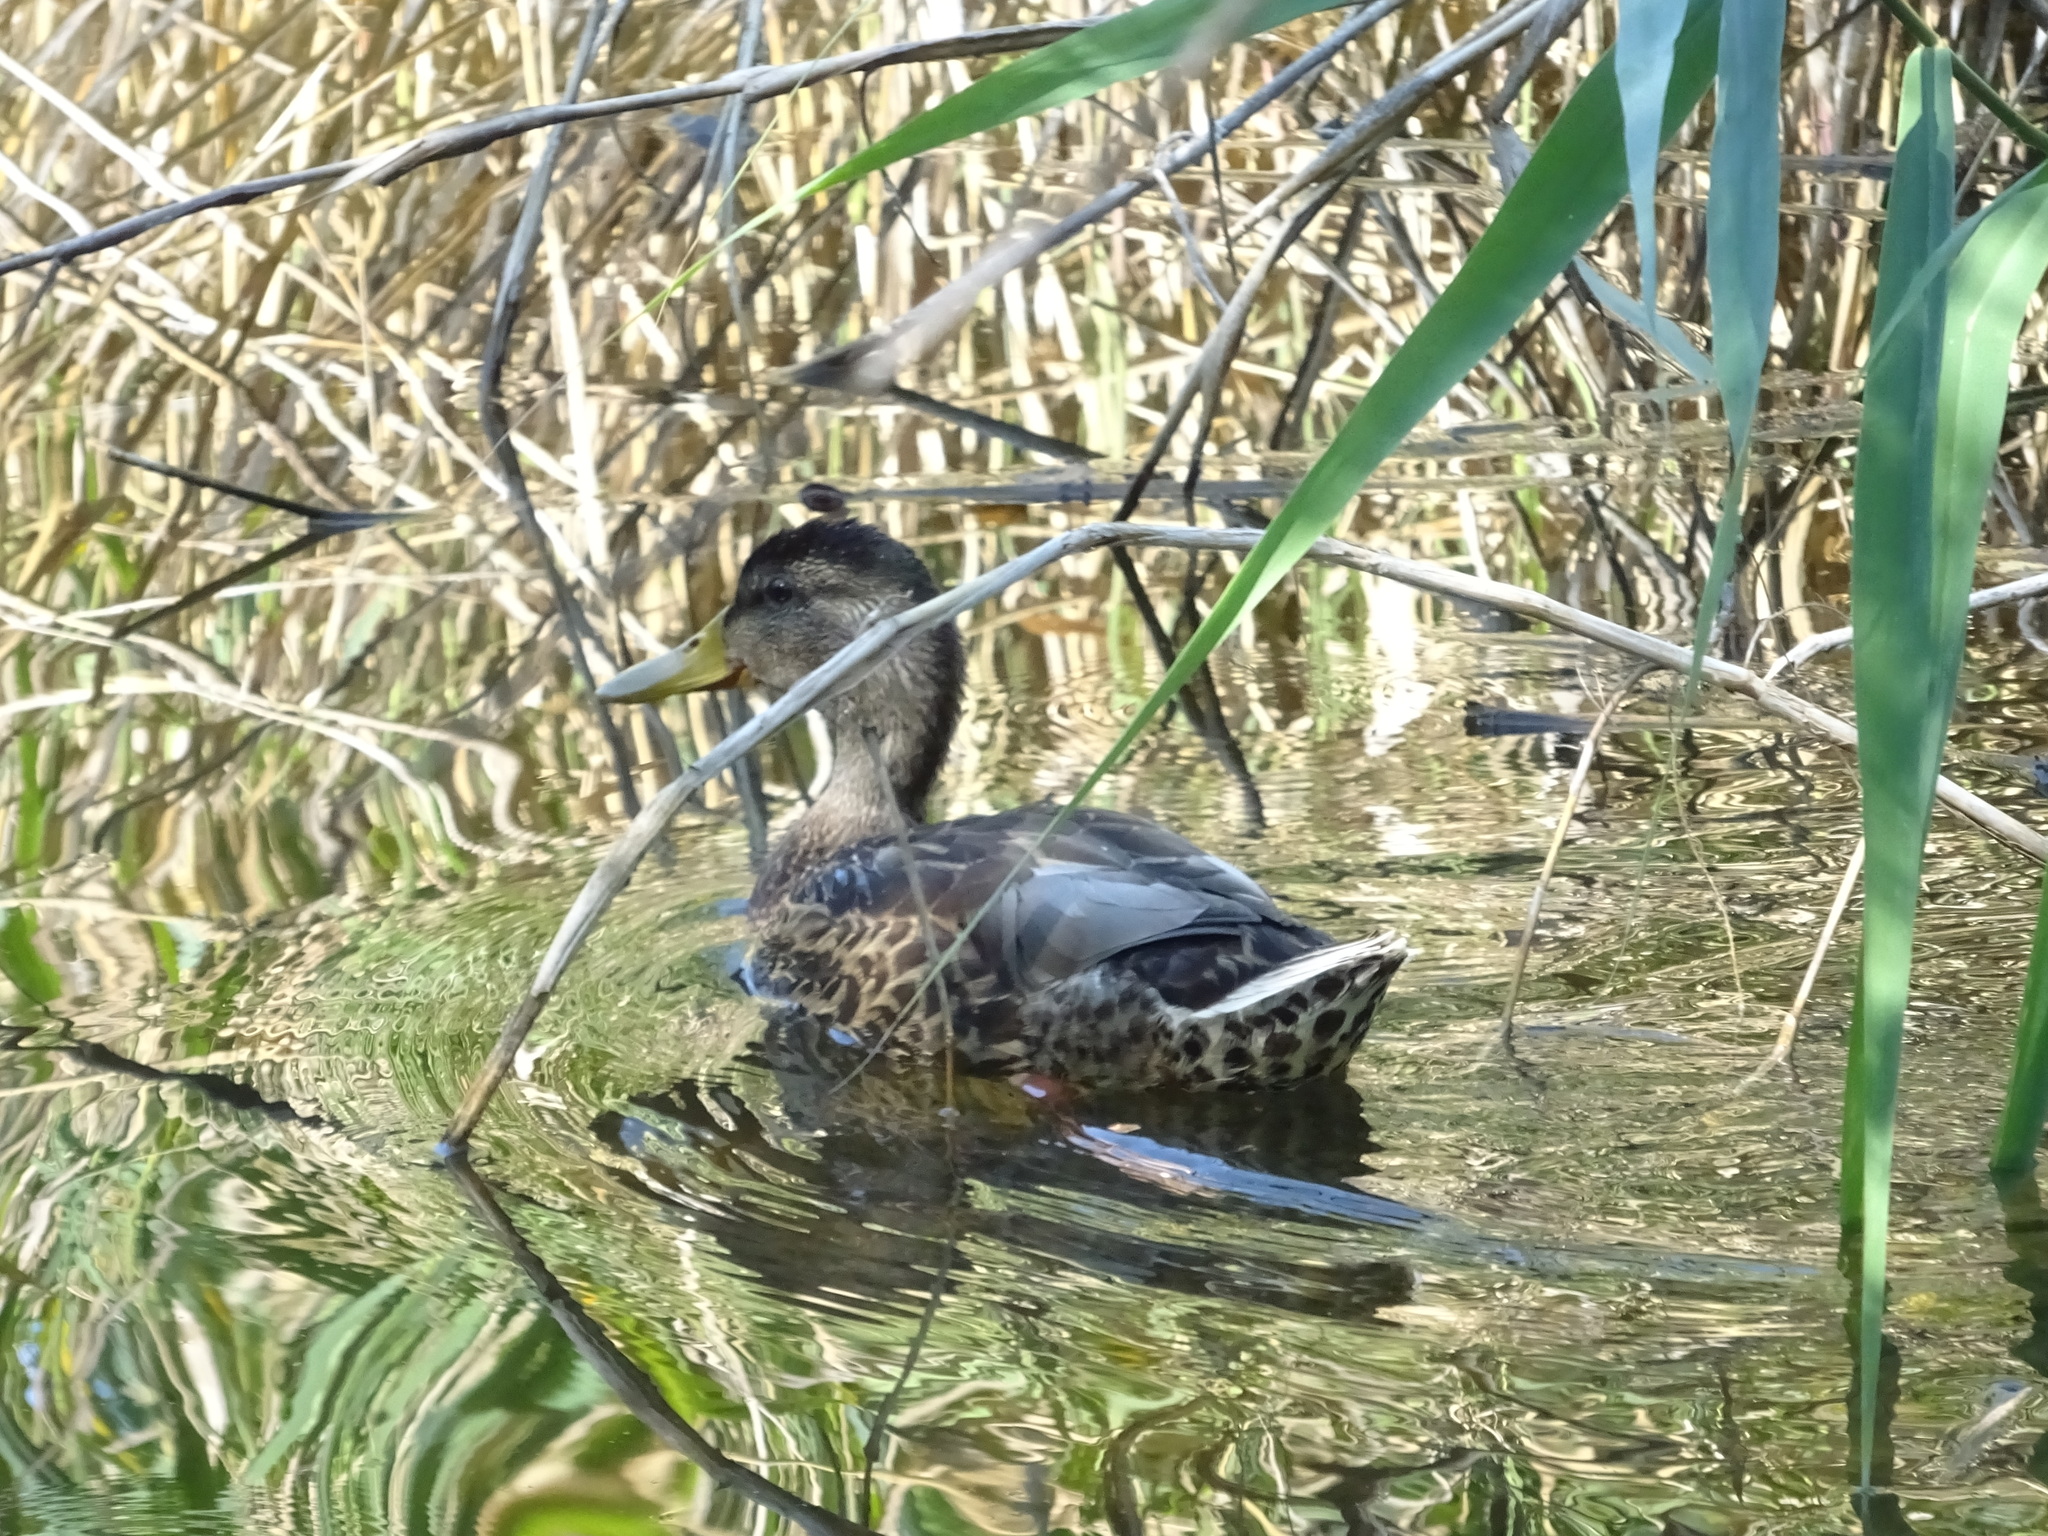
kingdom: Animalia
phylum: Chordata
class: Aves
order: Anseriformes
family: Anatidae
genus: Anas
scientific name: Anas platyrhynchos
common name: Mallard
